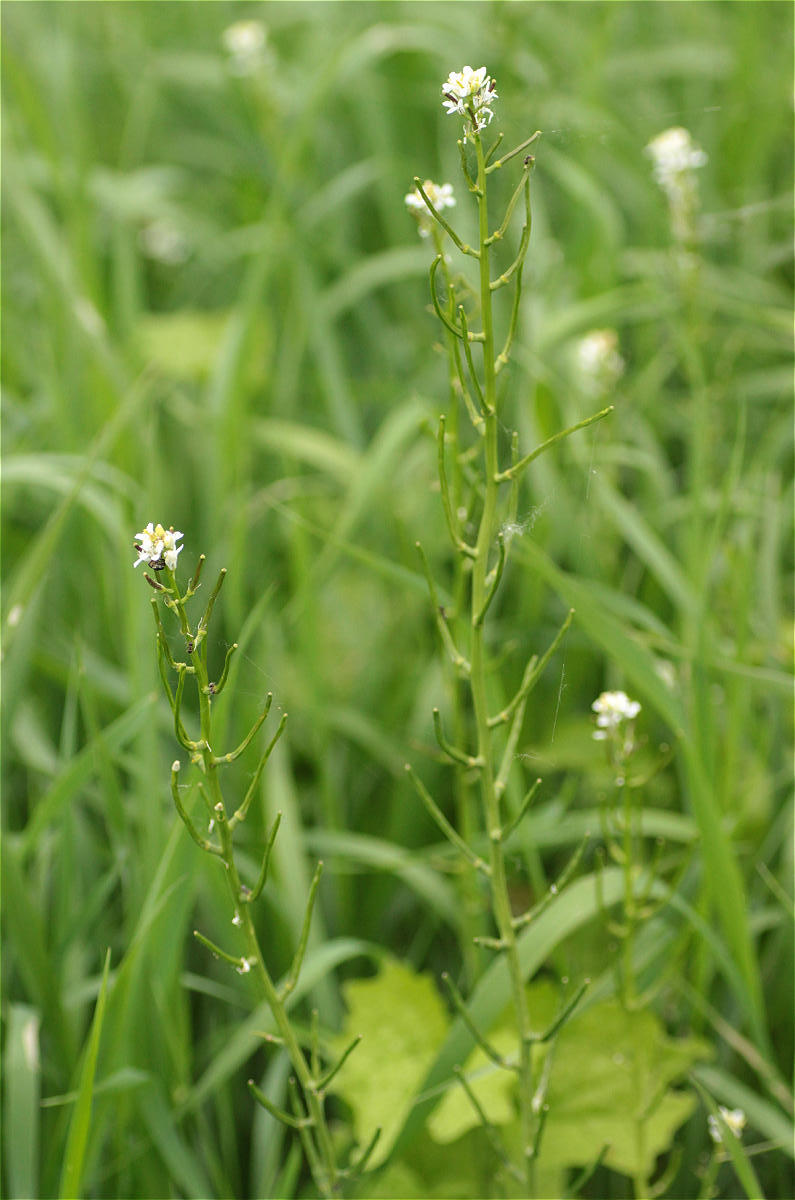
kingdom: Plantae
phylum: Tracheophyta
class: Magnoliopsida
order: Brassicales
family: Brassicaceae
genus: Alliaria
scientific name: Alliaria petiolata
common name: Garlic mustard
